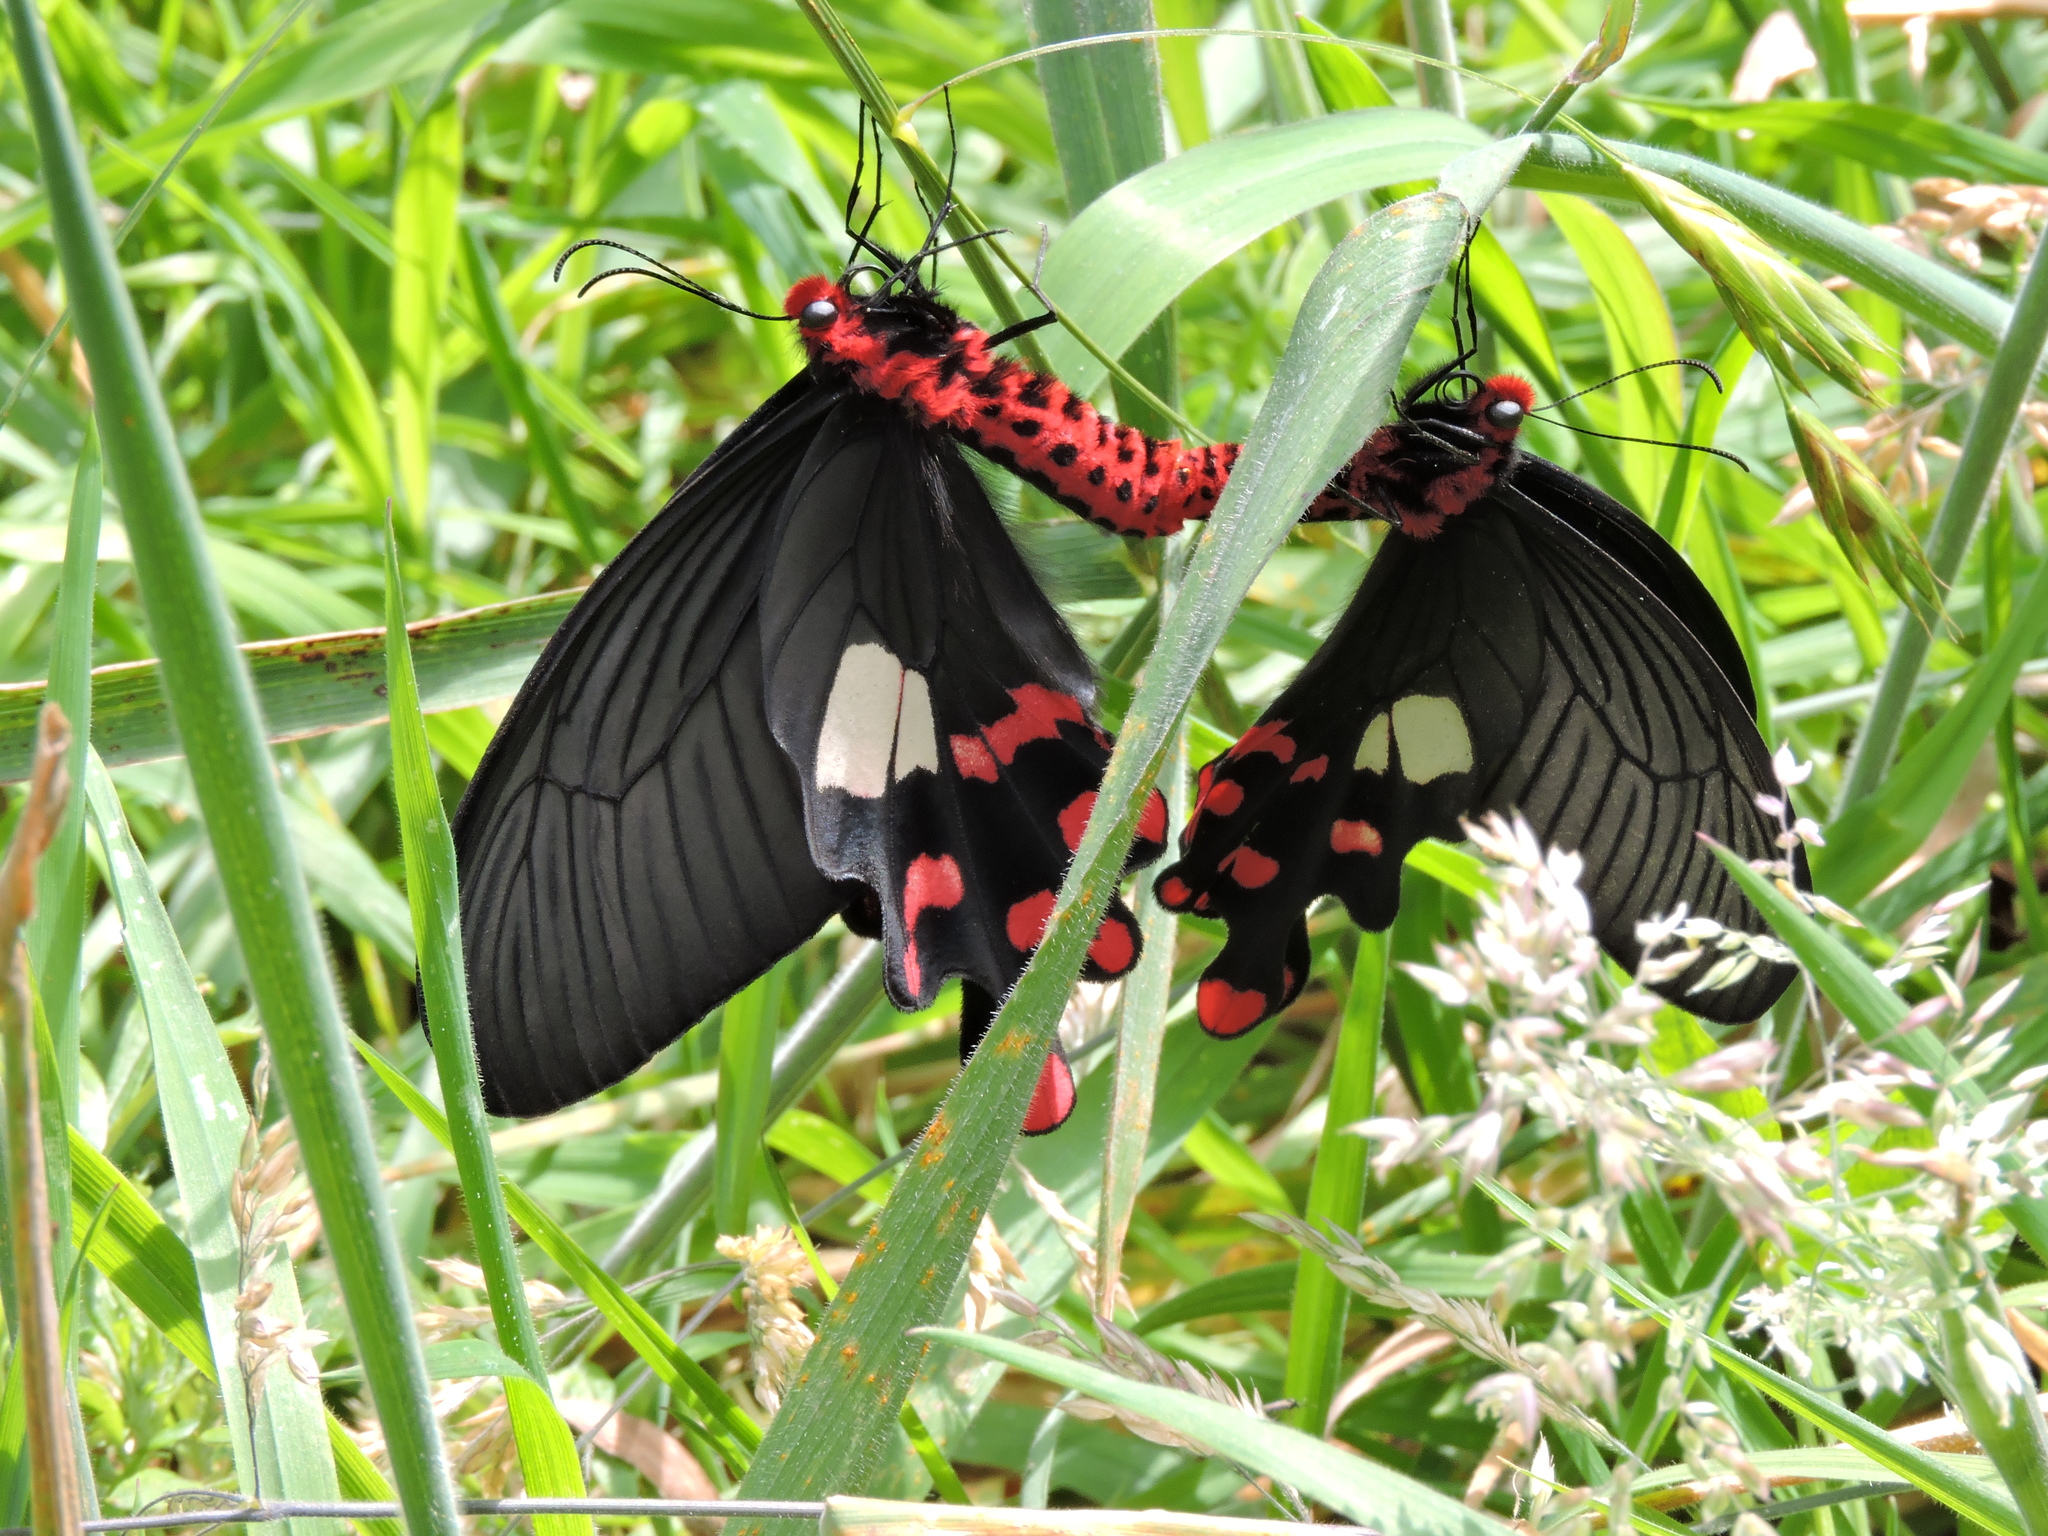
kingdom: Animalia
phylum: Arthropoda
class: Insecta
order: Lepidoptera
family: Papilionidae
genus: Byasa
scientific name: Byasa polyeuctes
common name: Common windmill
